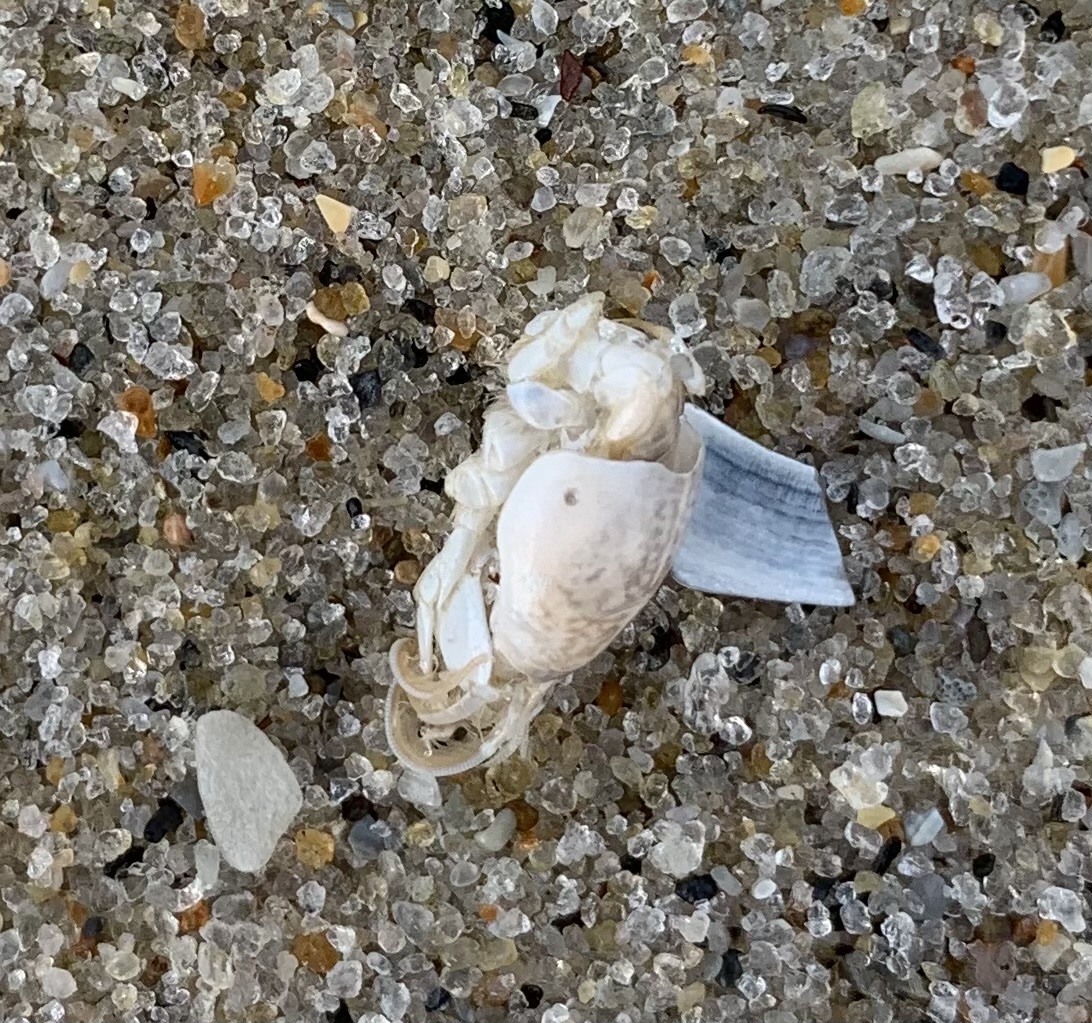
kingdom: Animalia
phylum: Arthropoda
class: Malacostraca
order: Decapoda
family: Hippidae
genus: Emerita
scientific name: Emerita talpoida
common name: Atlantic sand crab
